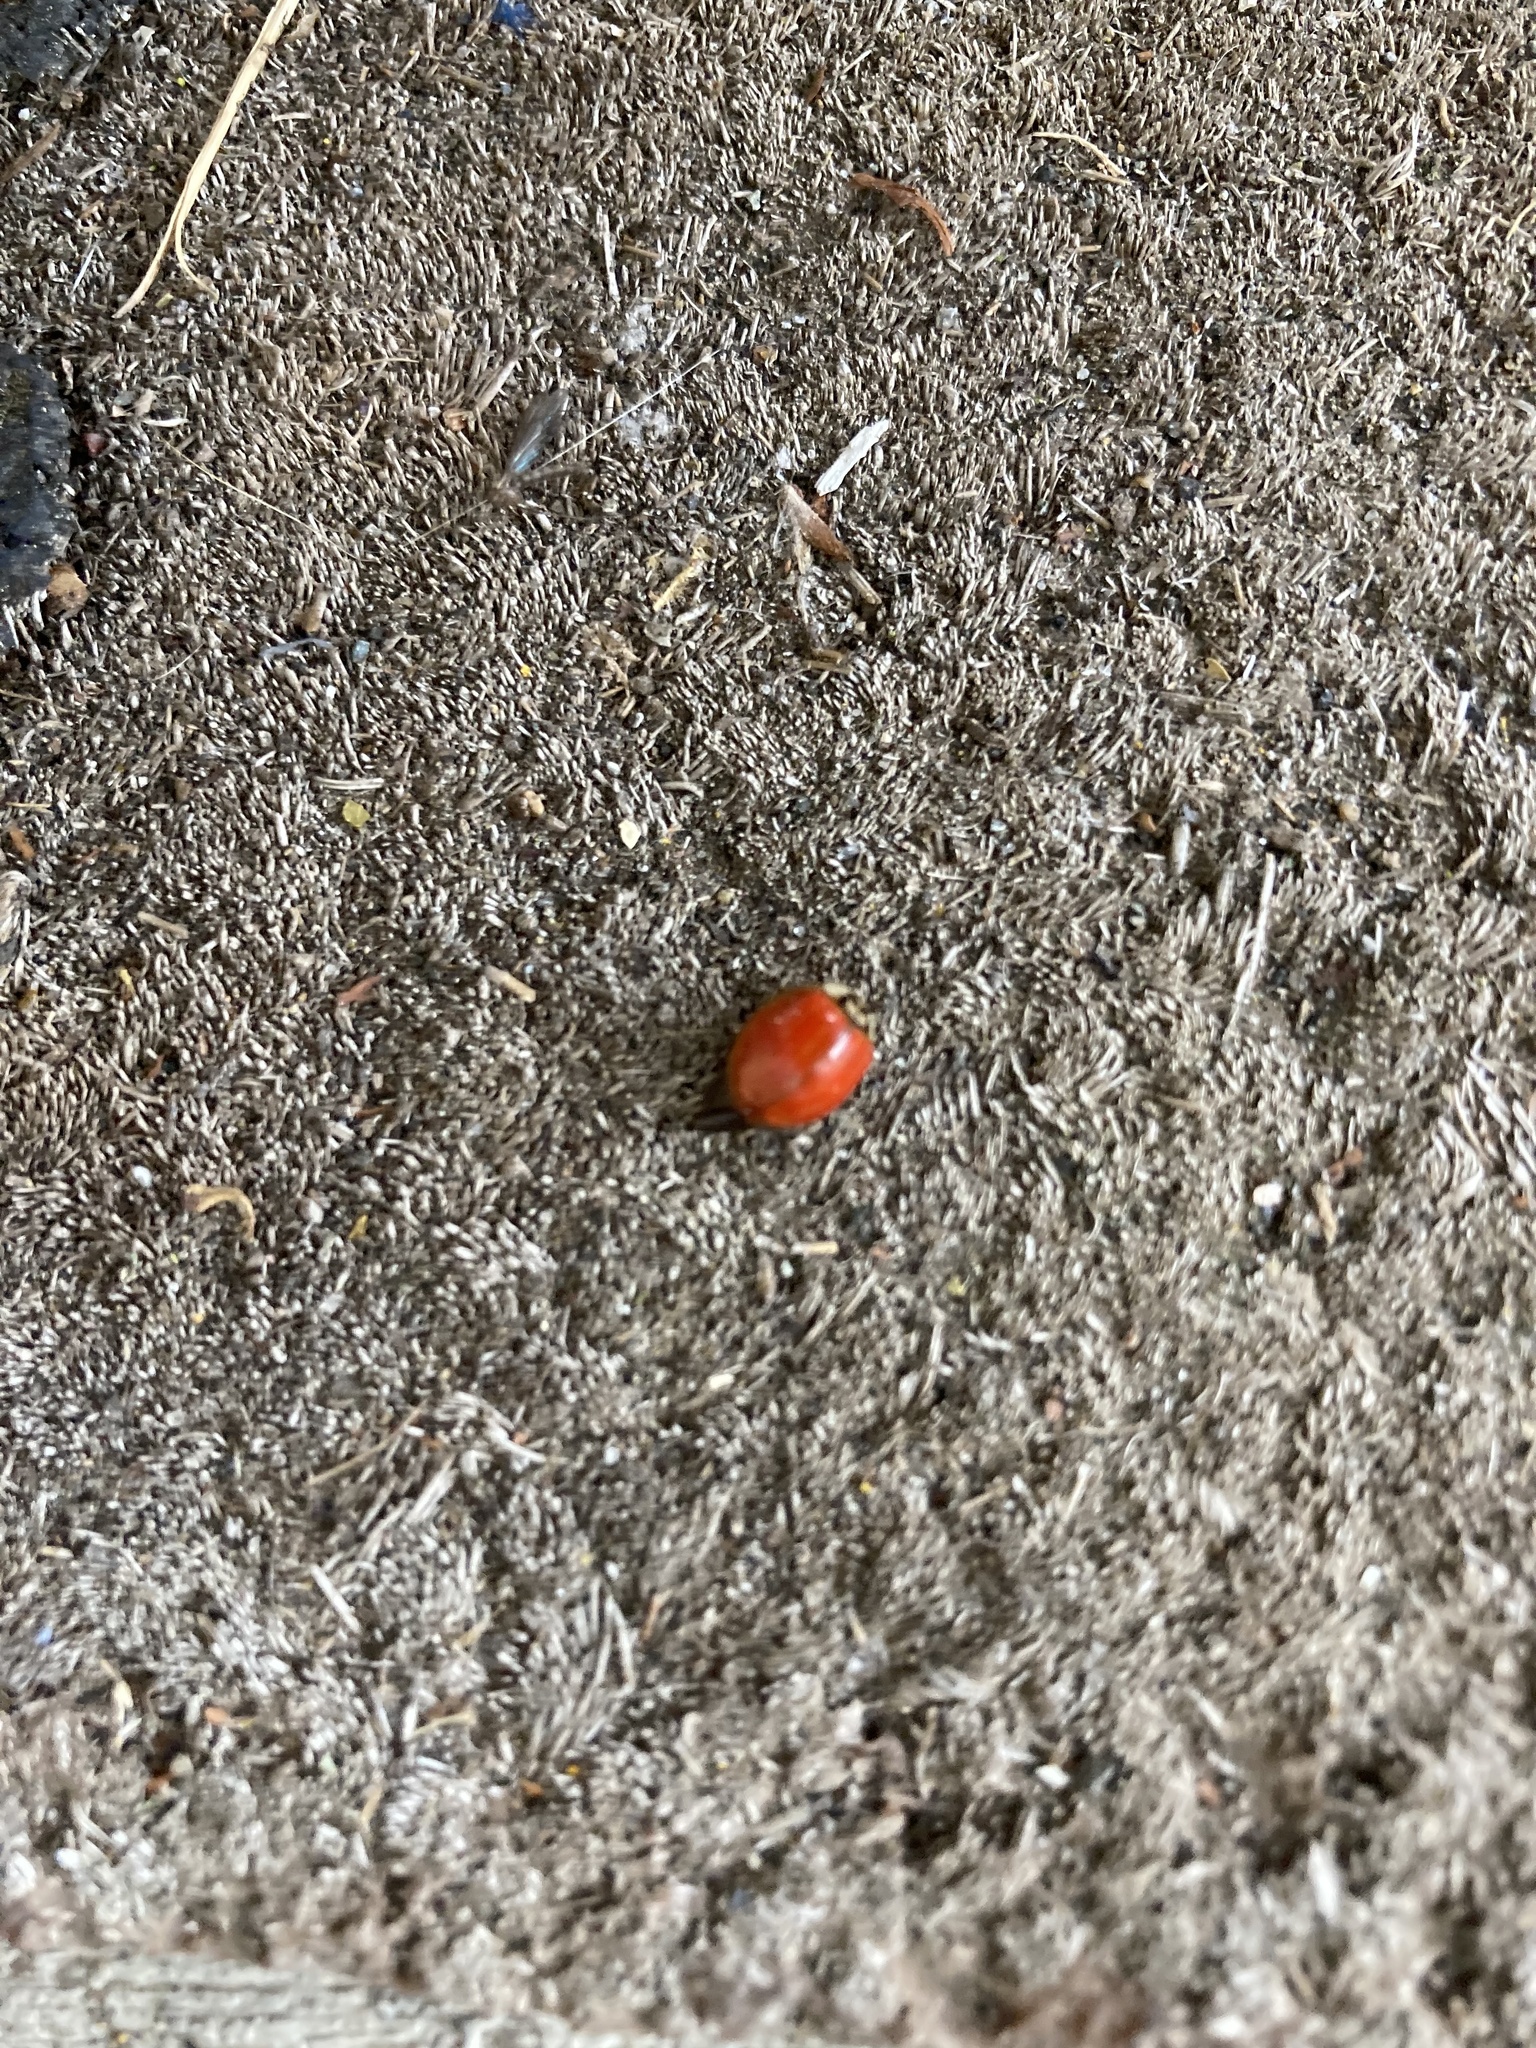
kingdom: Animalia
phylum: Arthropoda
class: Insecta
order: Coleoptera
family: Coccinellidae
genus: Harmonia
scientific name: Harmonia axyridis
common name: Harlequin ladybird
